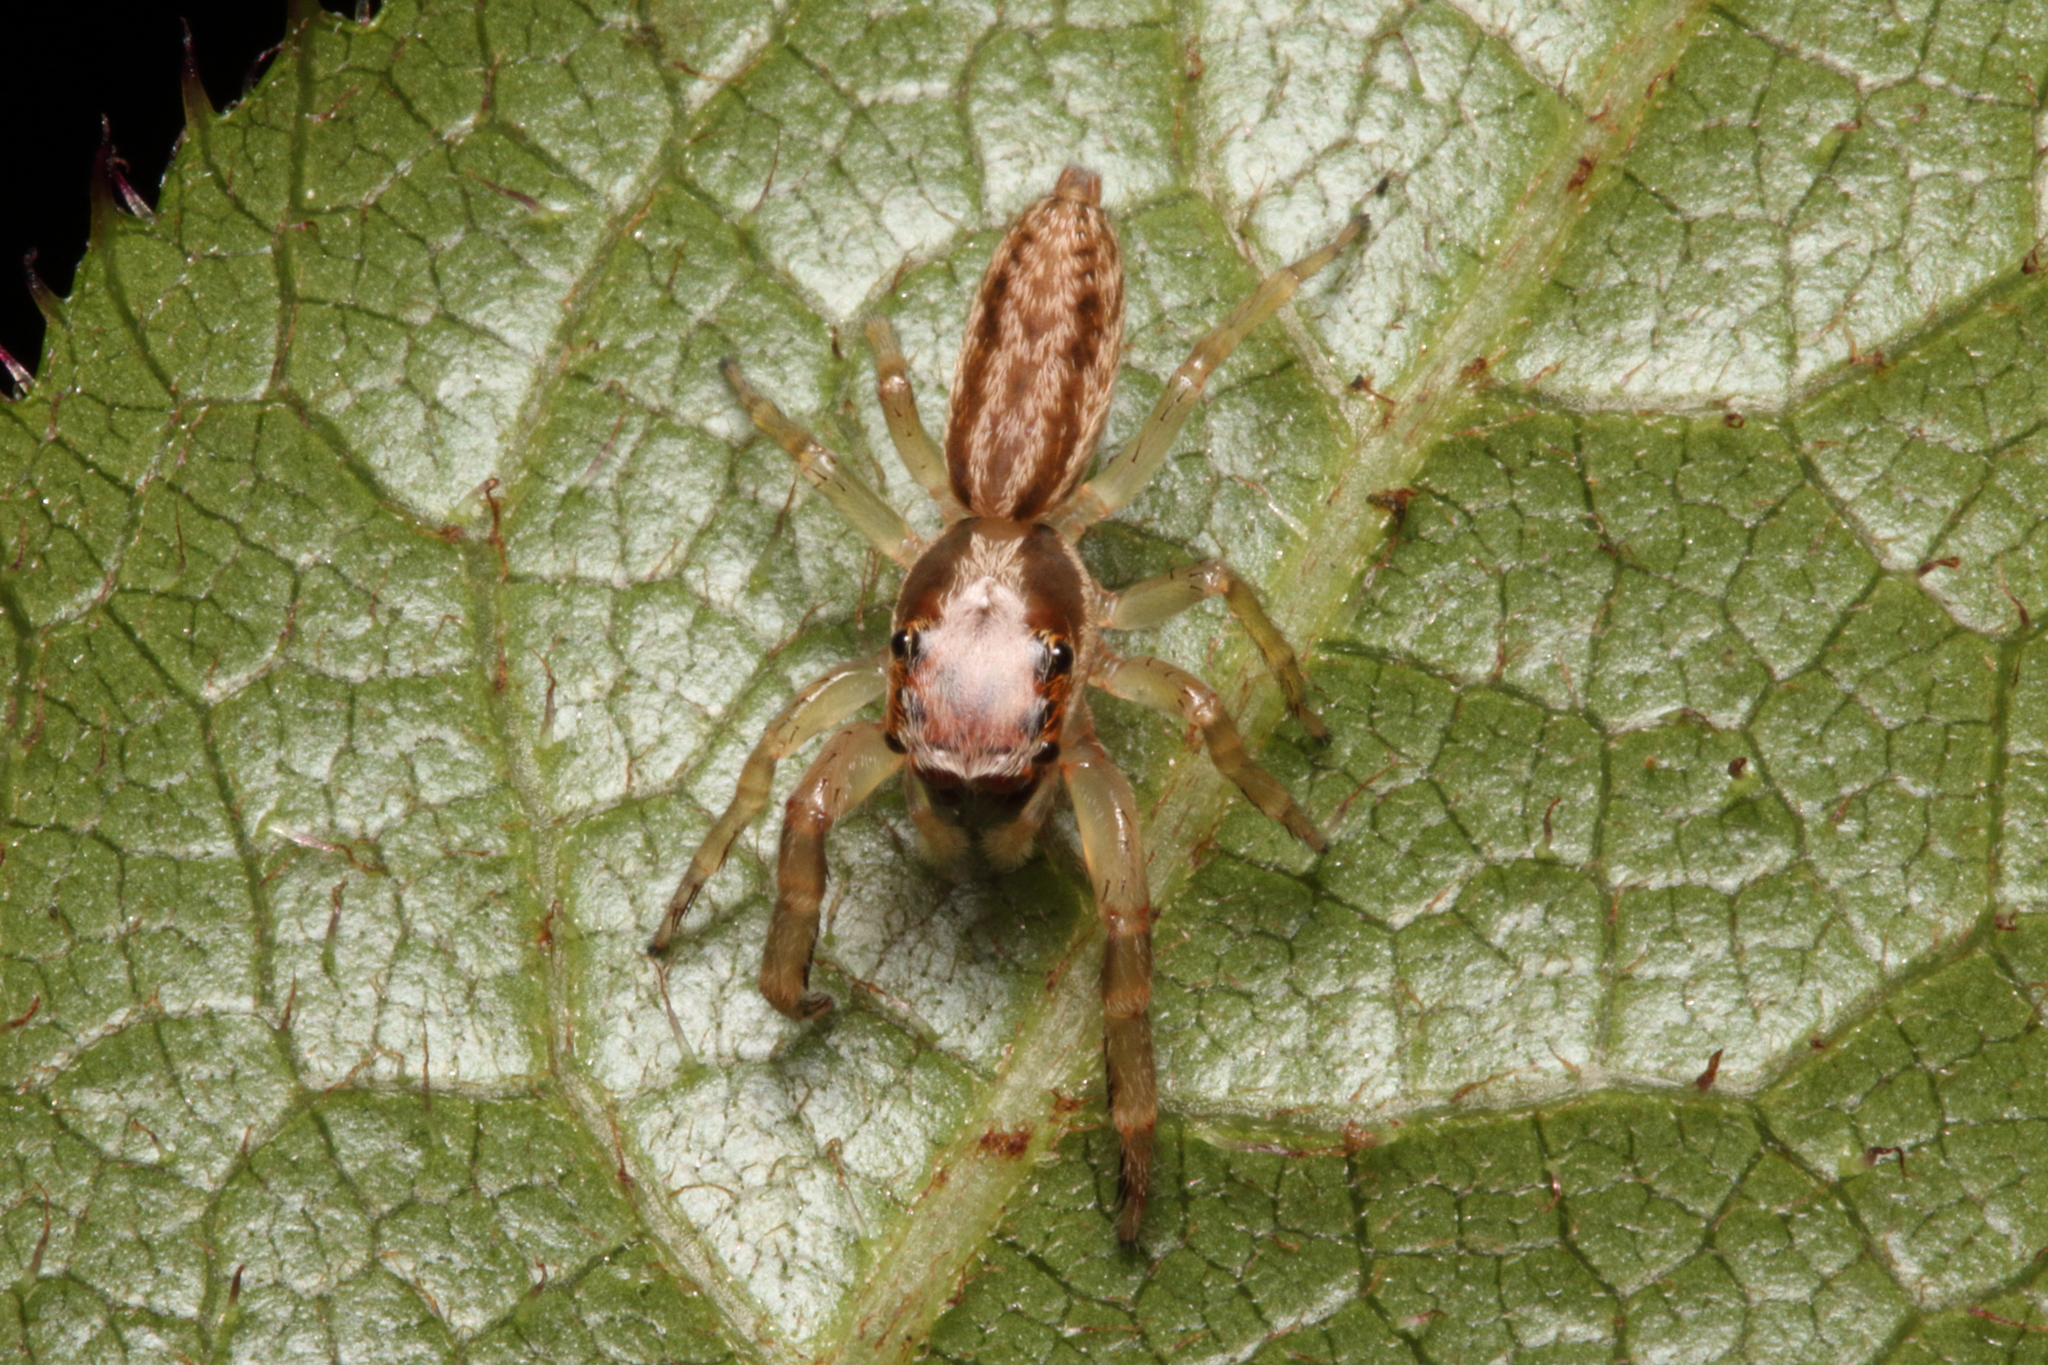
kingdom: Animalia
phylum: Arthropoda
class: Arachnida
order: Araneae
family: Salticidae
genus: Trite
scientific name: Trite mustilina
